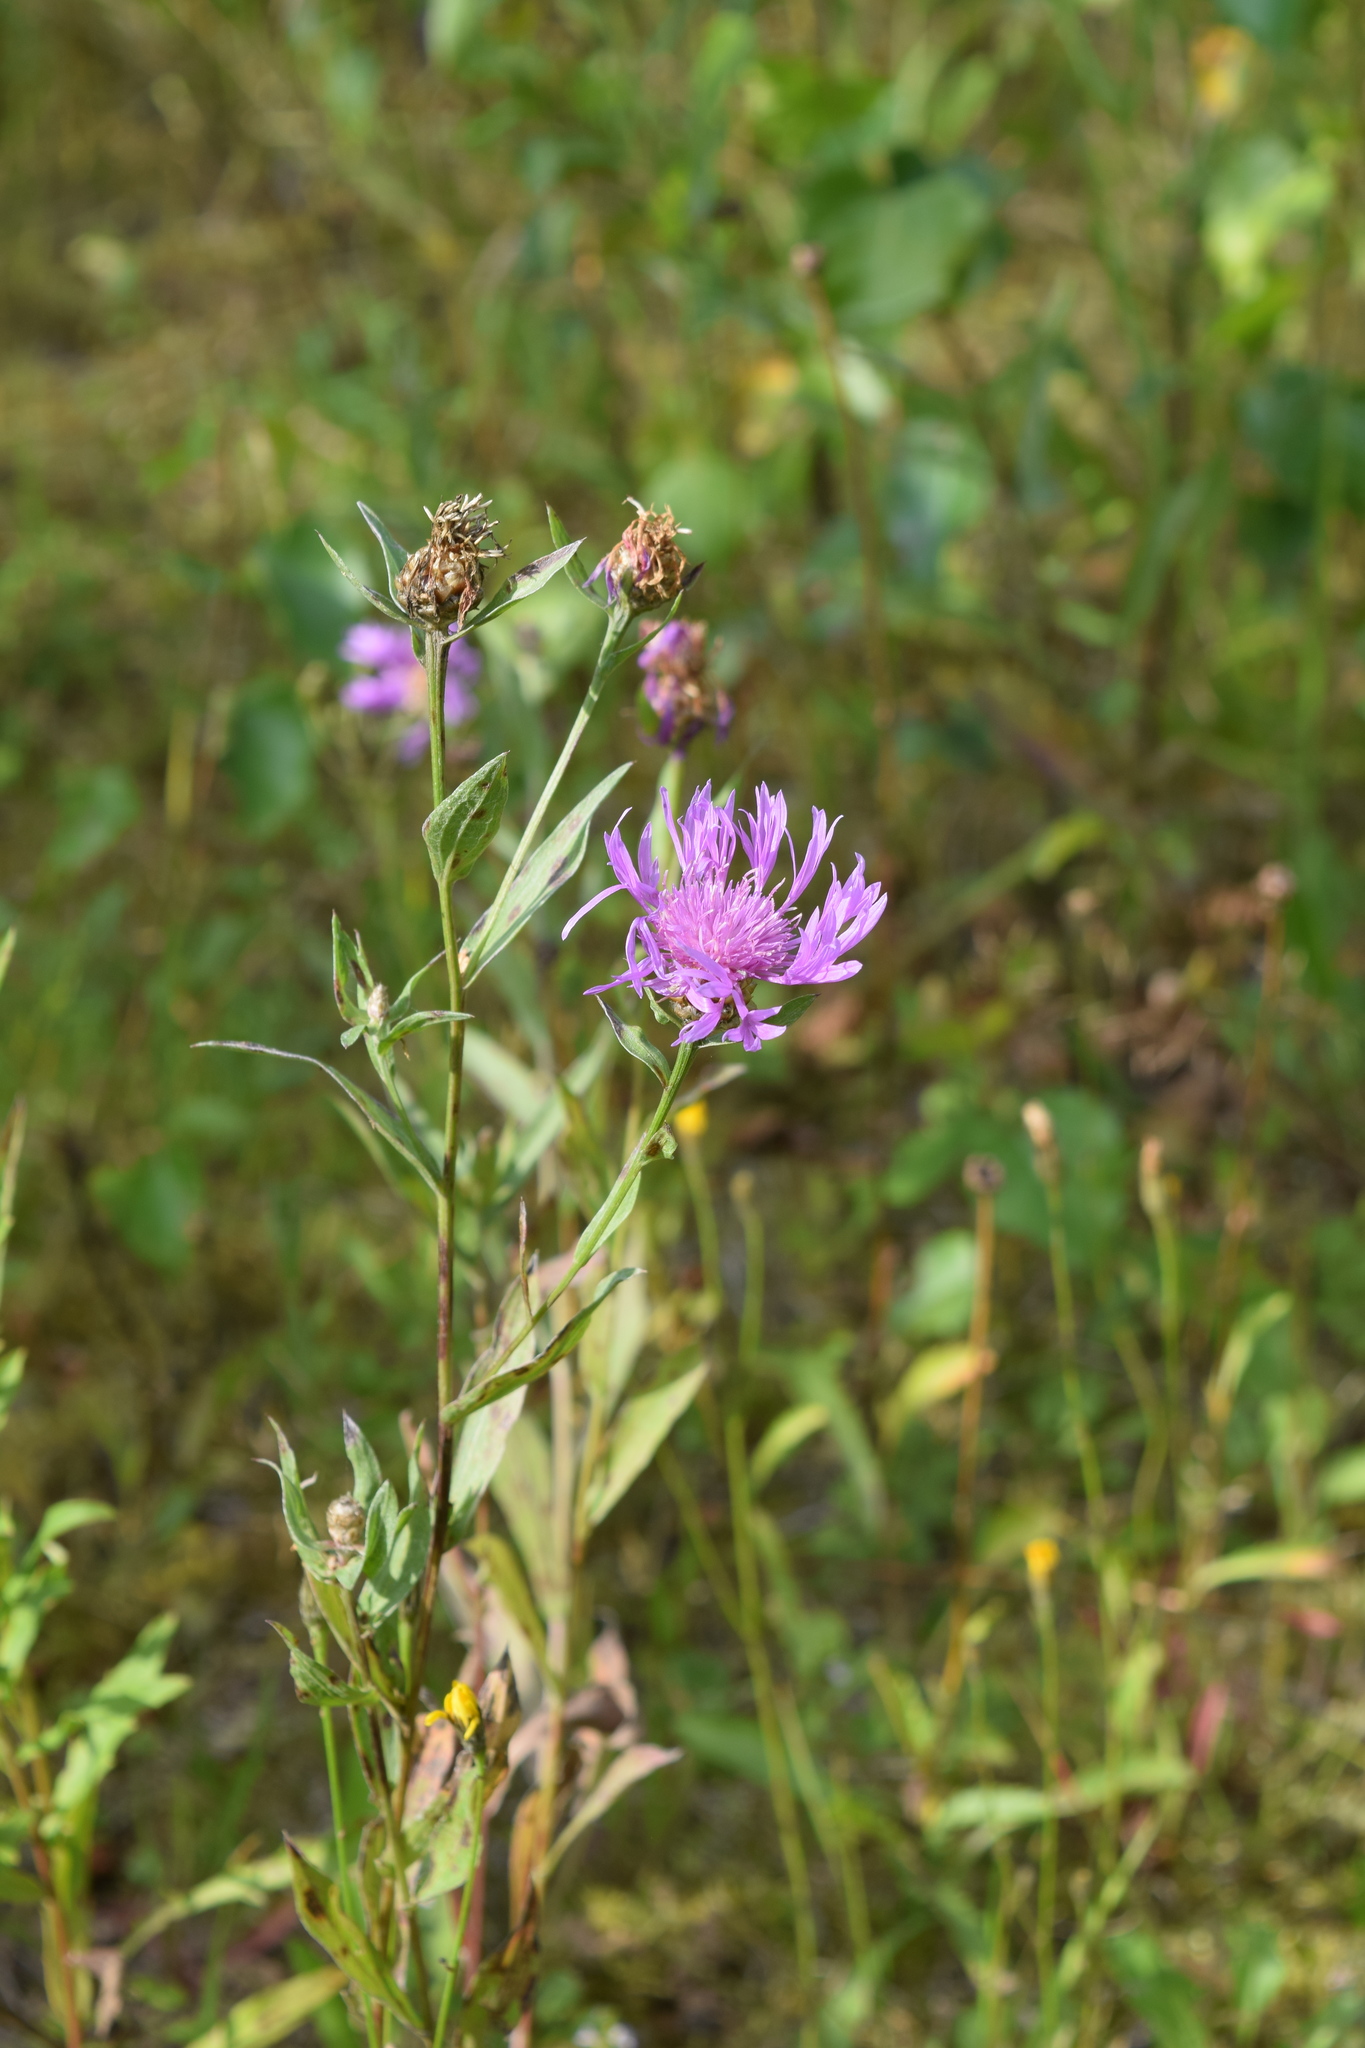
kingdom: Plantae
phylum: Tracheophyta
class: Magnoliopsida
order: Asterales
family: Asteraceae
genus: Centaurea
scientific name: Centaurea jacea
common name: Brown knapweed
